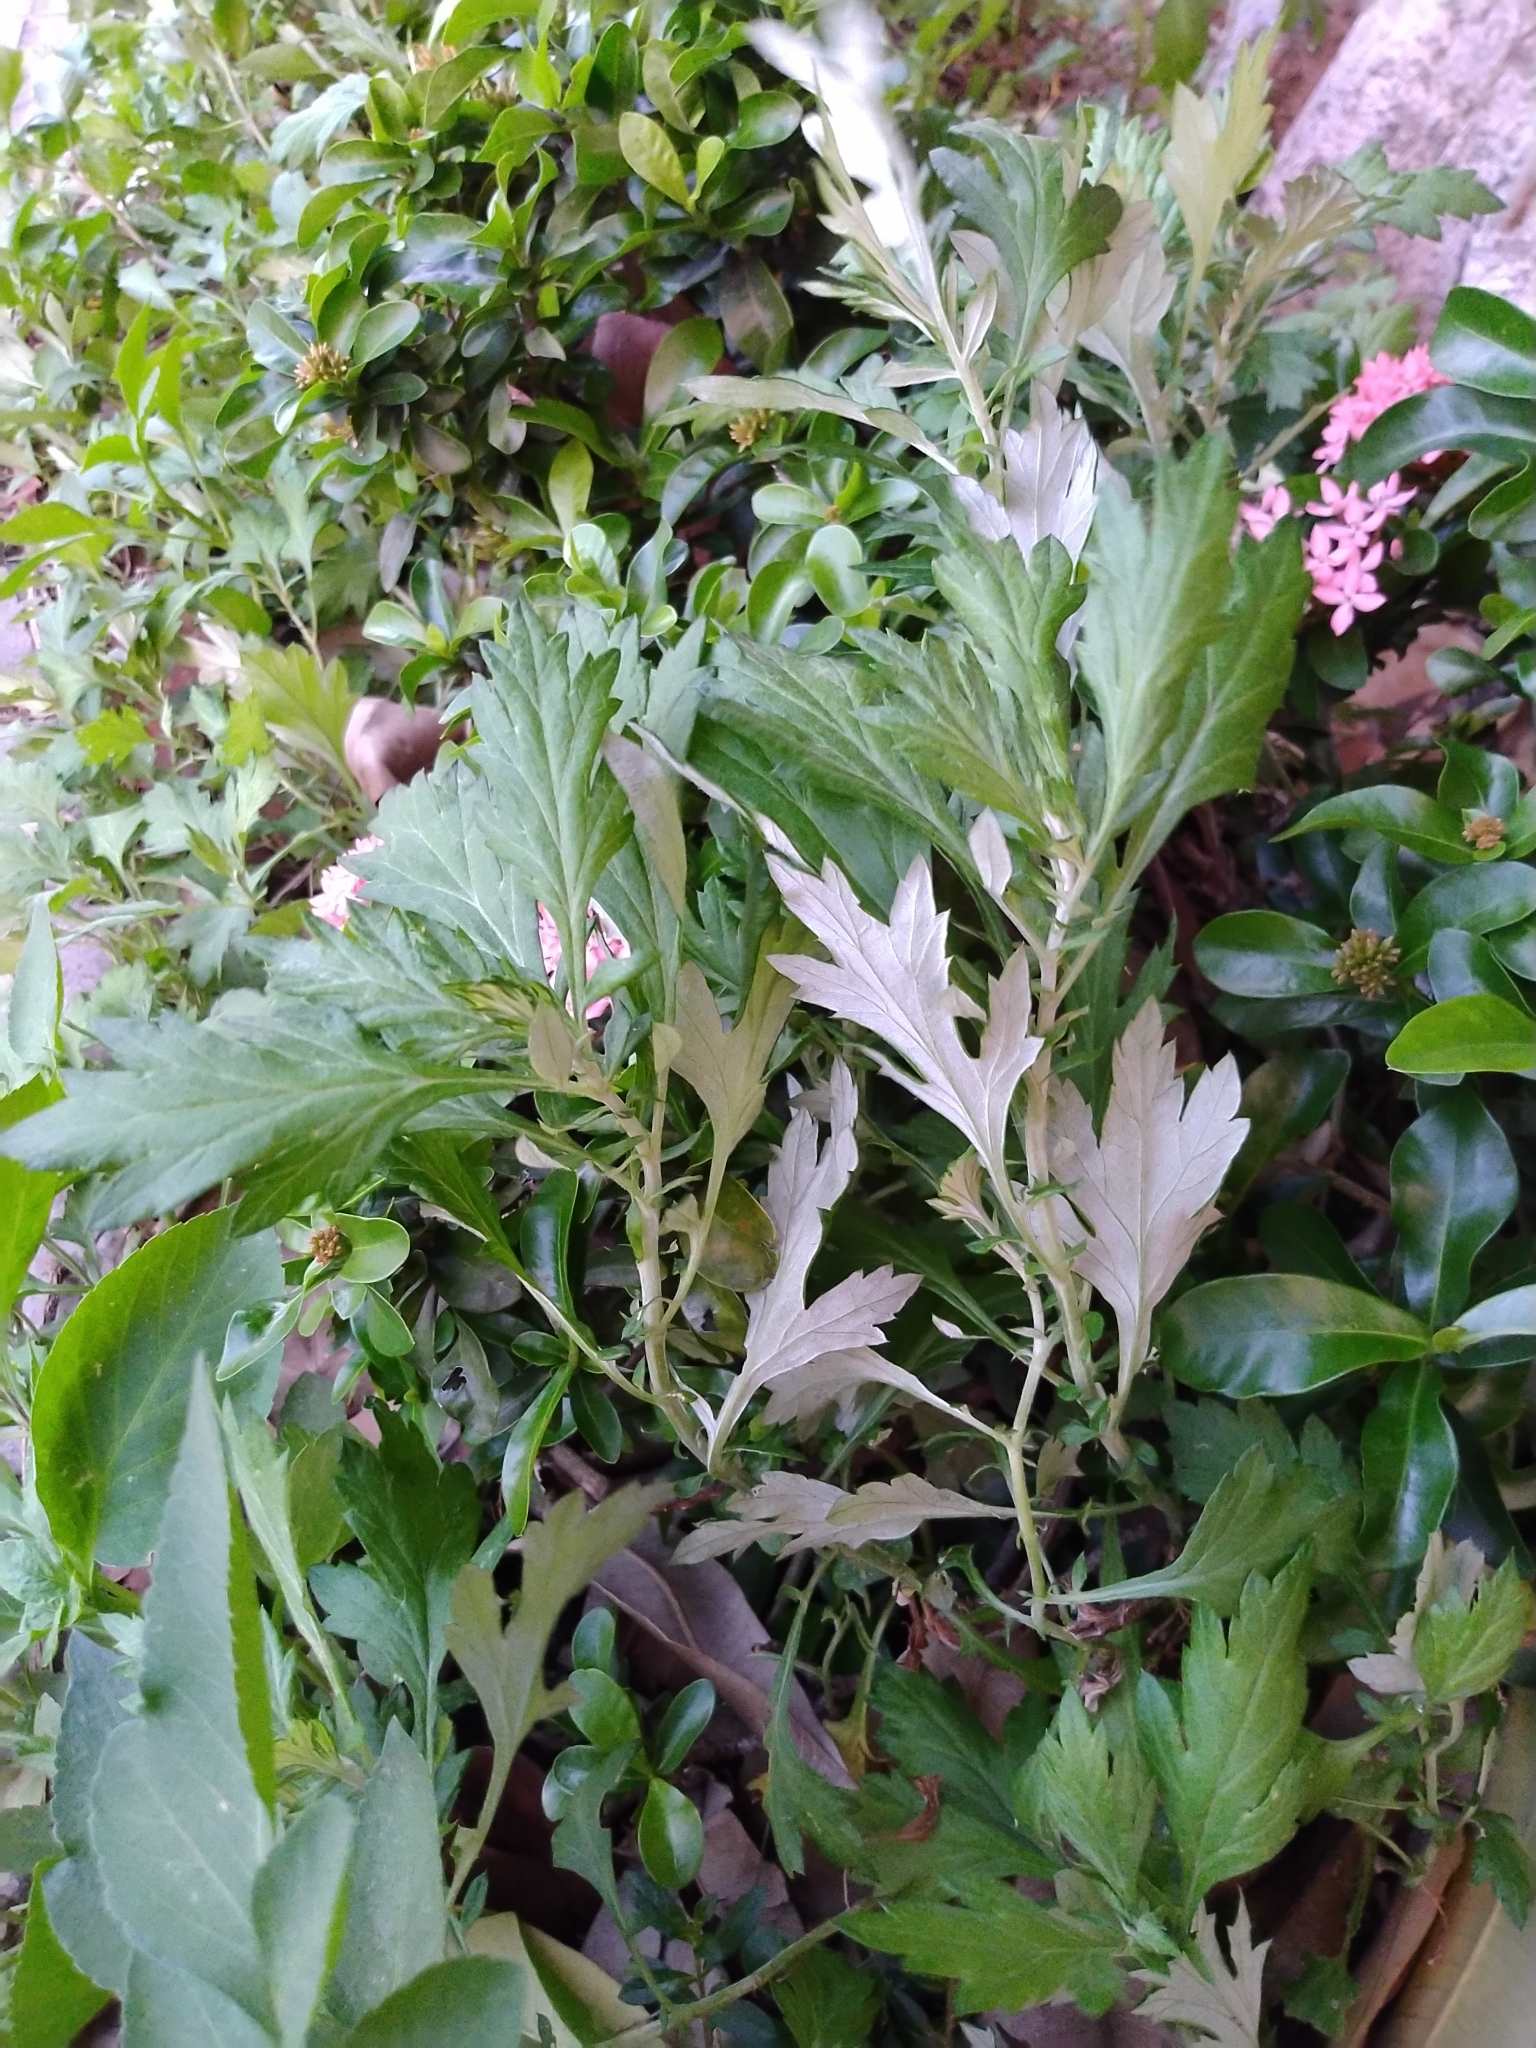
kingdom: Plantae
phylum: Tracheophyta
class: Magnoliopsida
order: Asterales
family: Asteraceae
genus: Artemisia
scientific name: Artemisia indica
